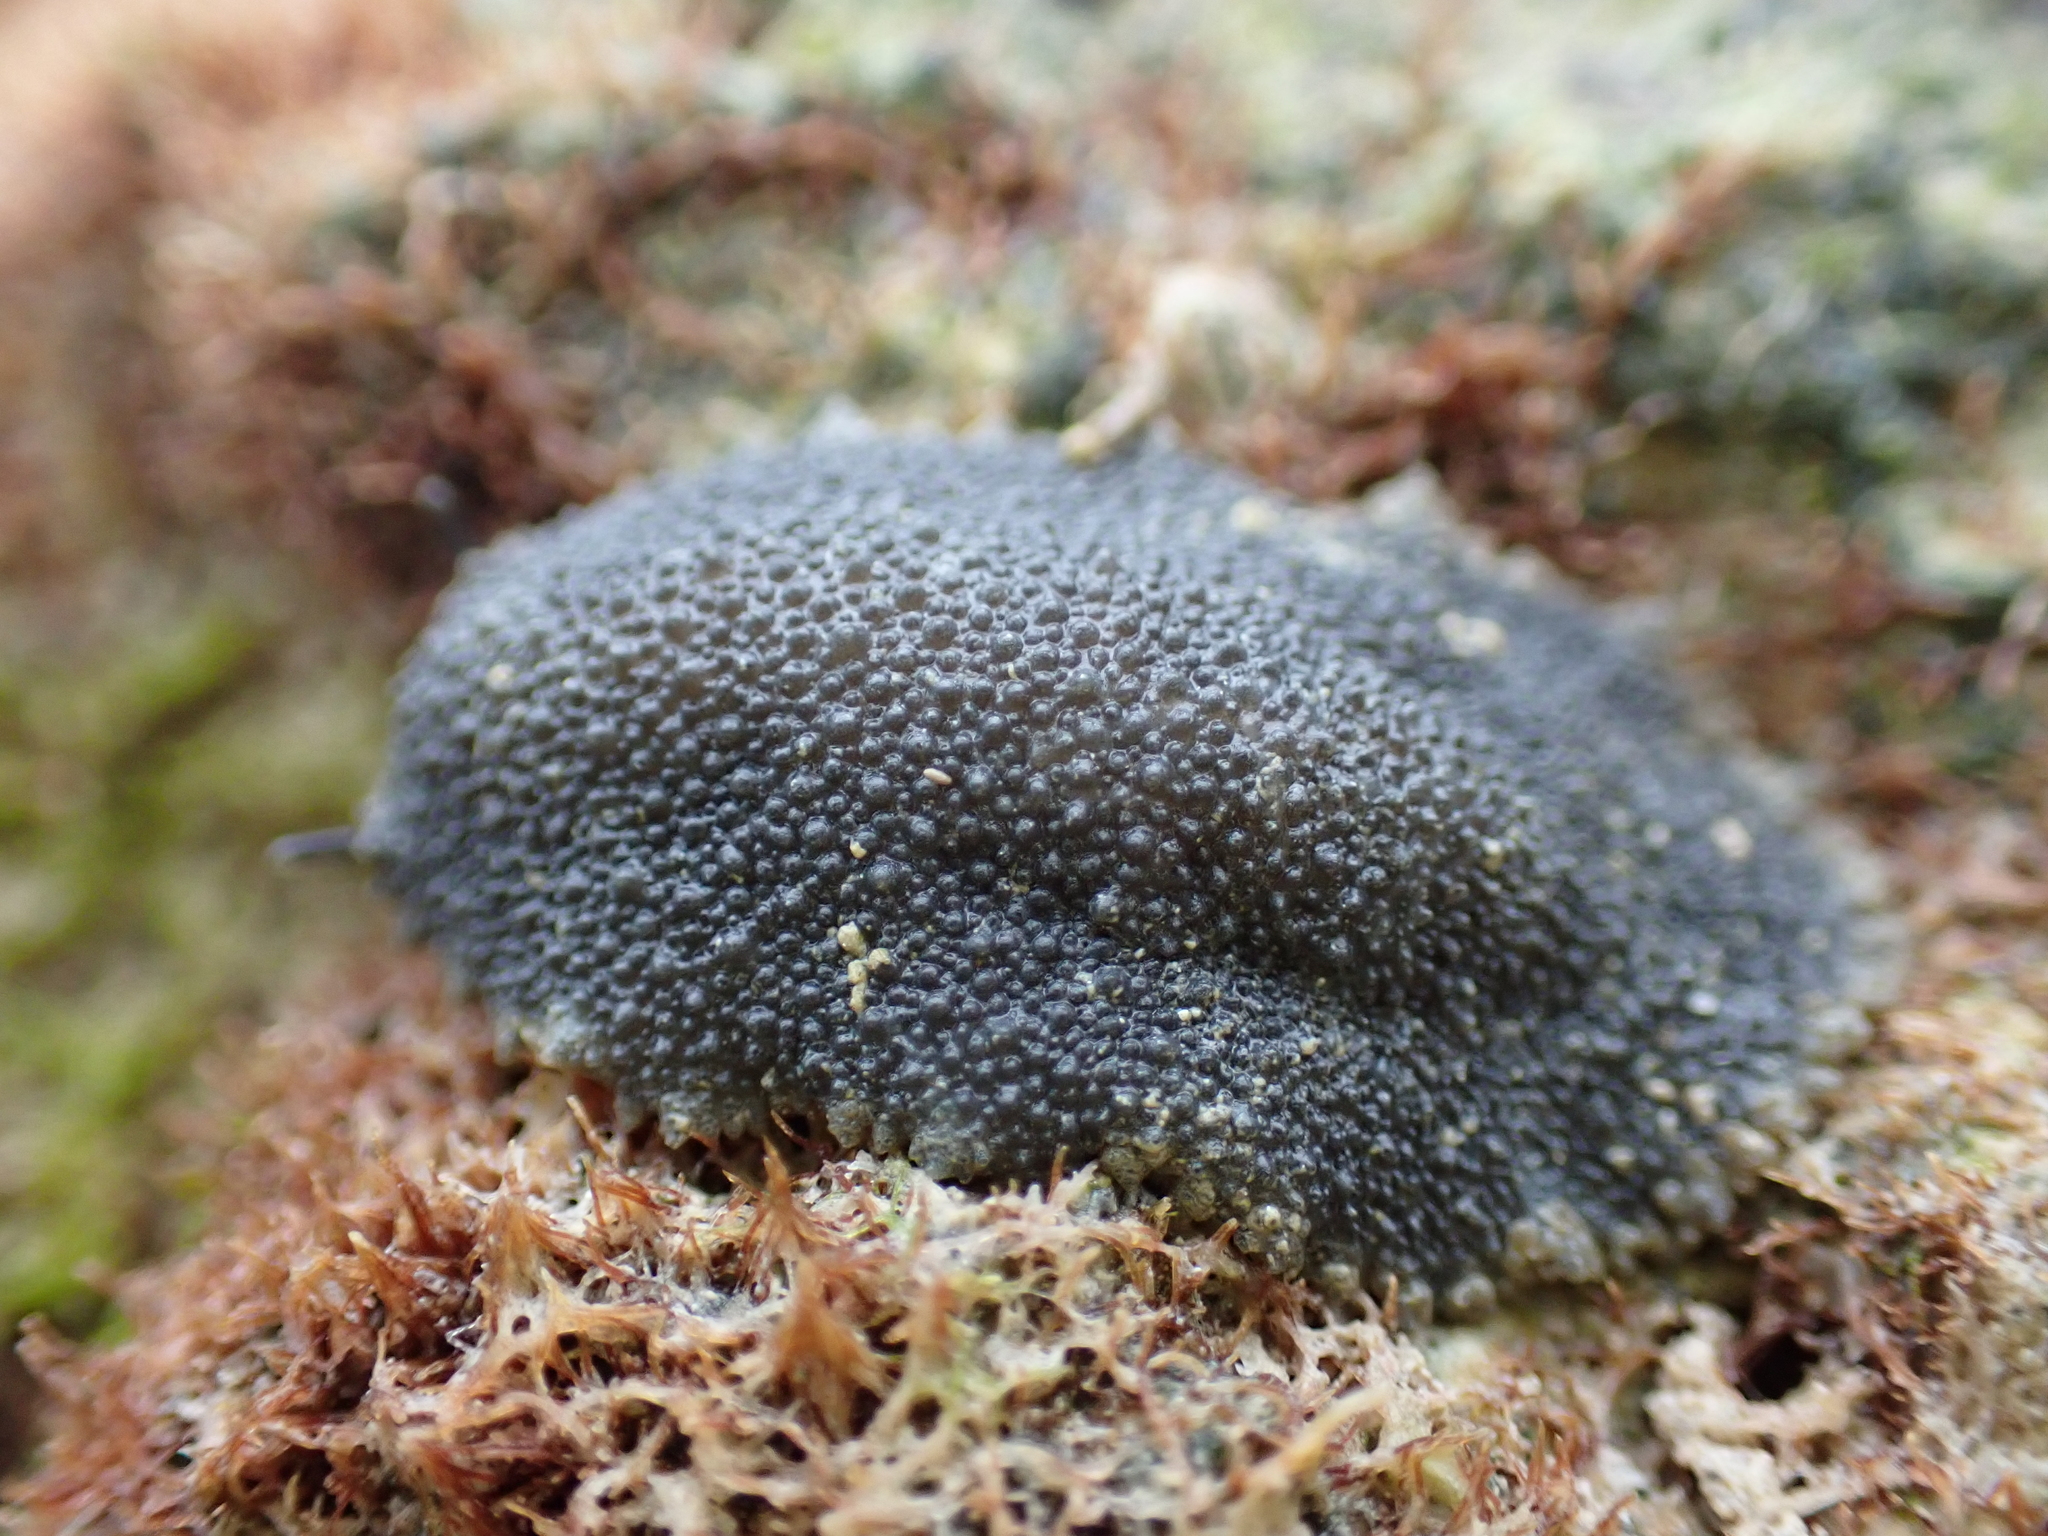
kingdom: Animalia
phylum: Mollusca
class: Gastropoda
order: Systellommatophora
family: Onchidiidae
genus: Onchidella
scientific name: Onchidella floridana
